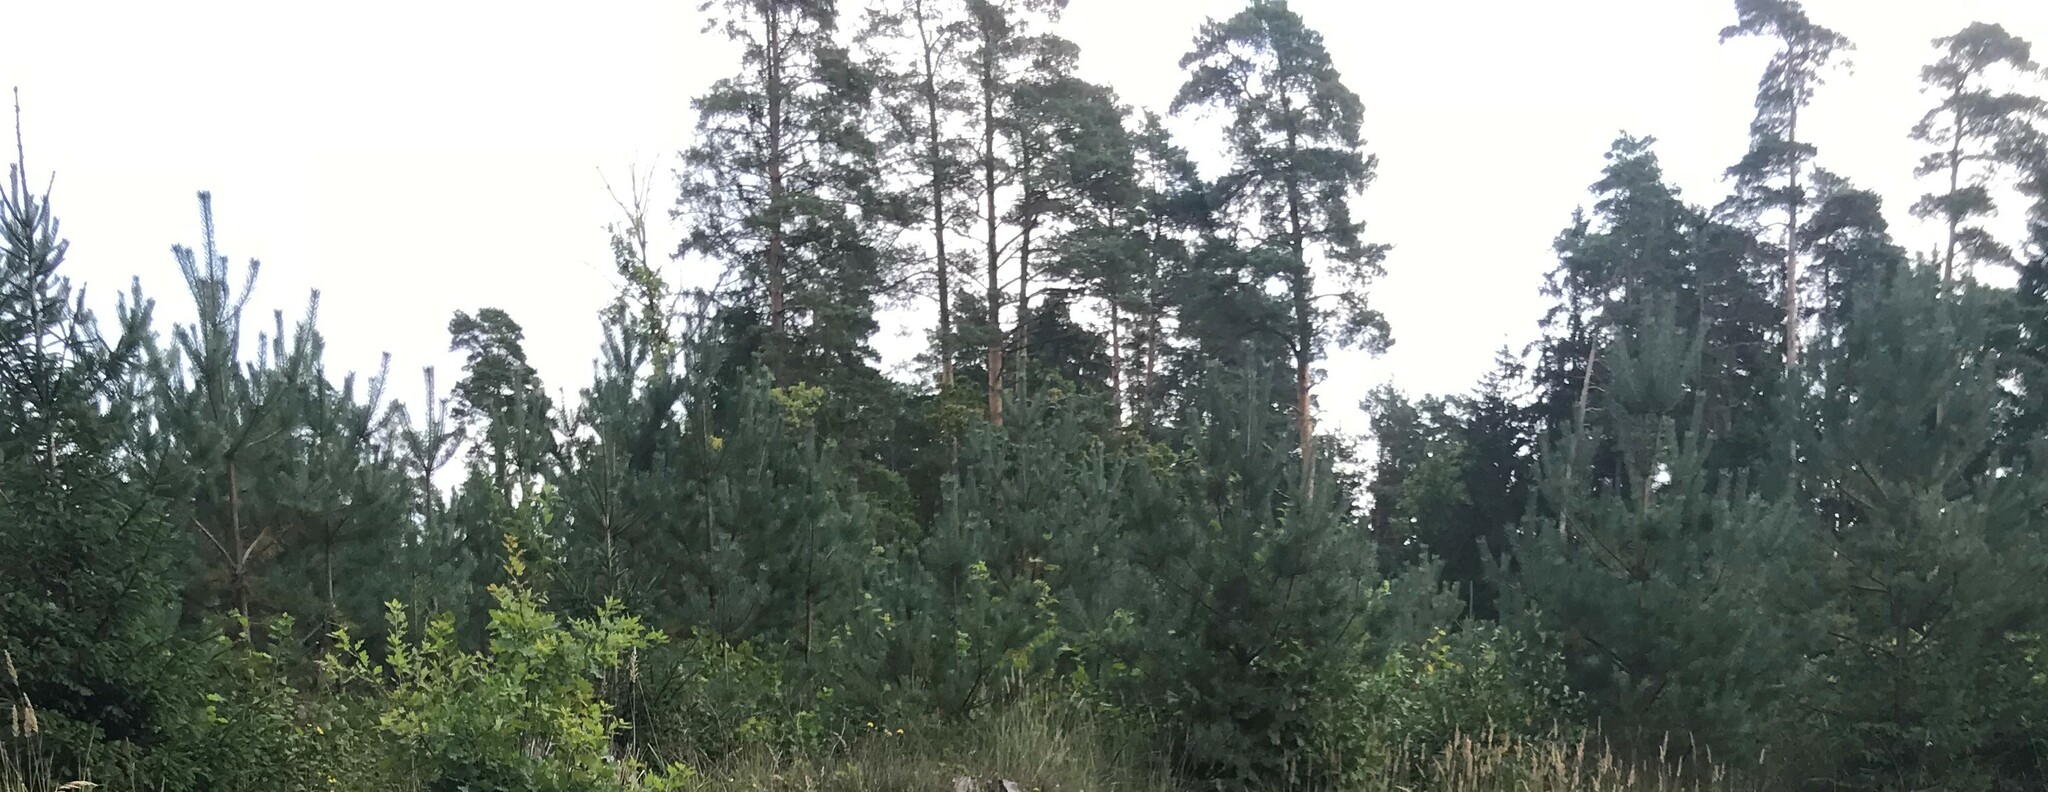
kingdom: Plantae
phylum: Tracheophyta
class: Pinopsida
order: Pinales
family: Pinaceae
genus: Pinus
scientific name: Pinus sylvestris
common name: Scots pine
